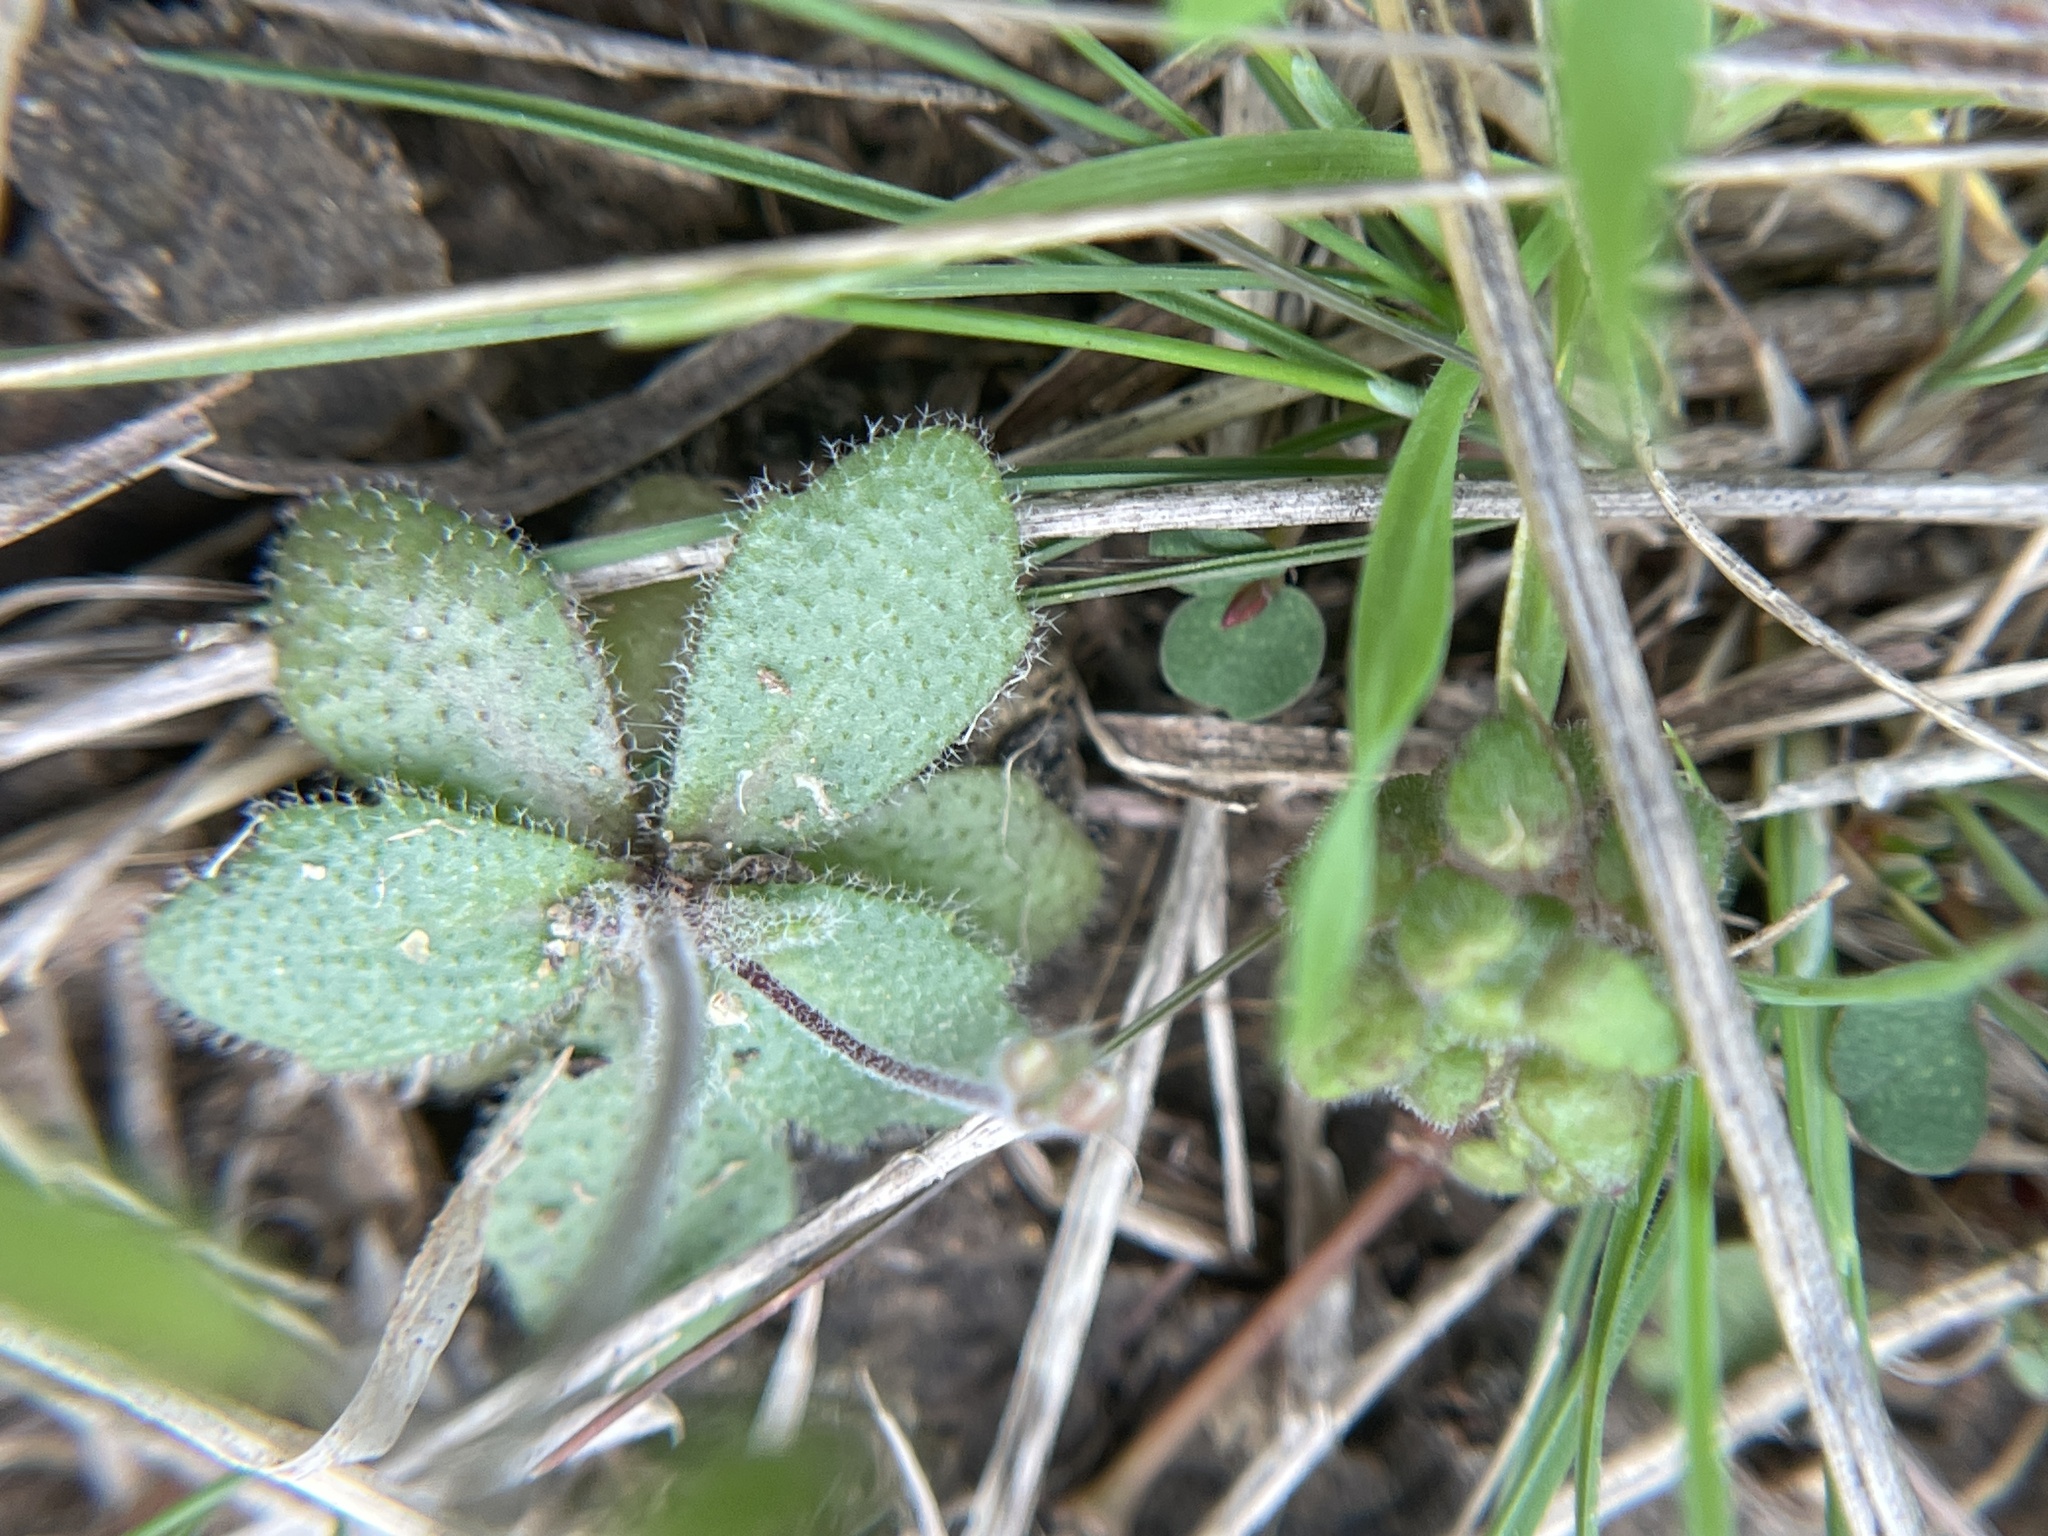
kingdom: Plantae
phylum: Tracheophyta
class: Magnoliopsida
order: Brassicales
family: Brassicaceae
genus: Tomostima
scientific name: Tomostima cuneifolia
